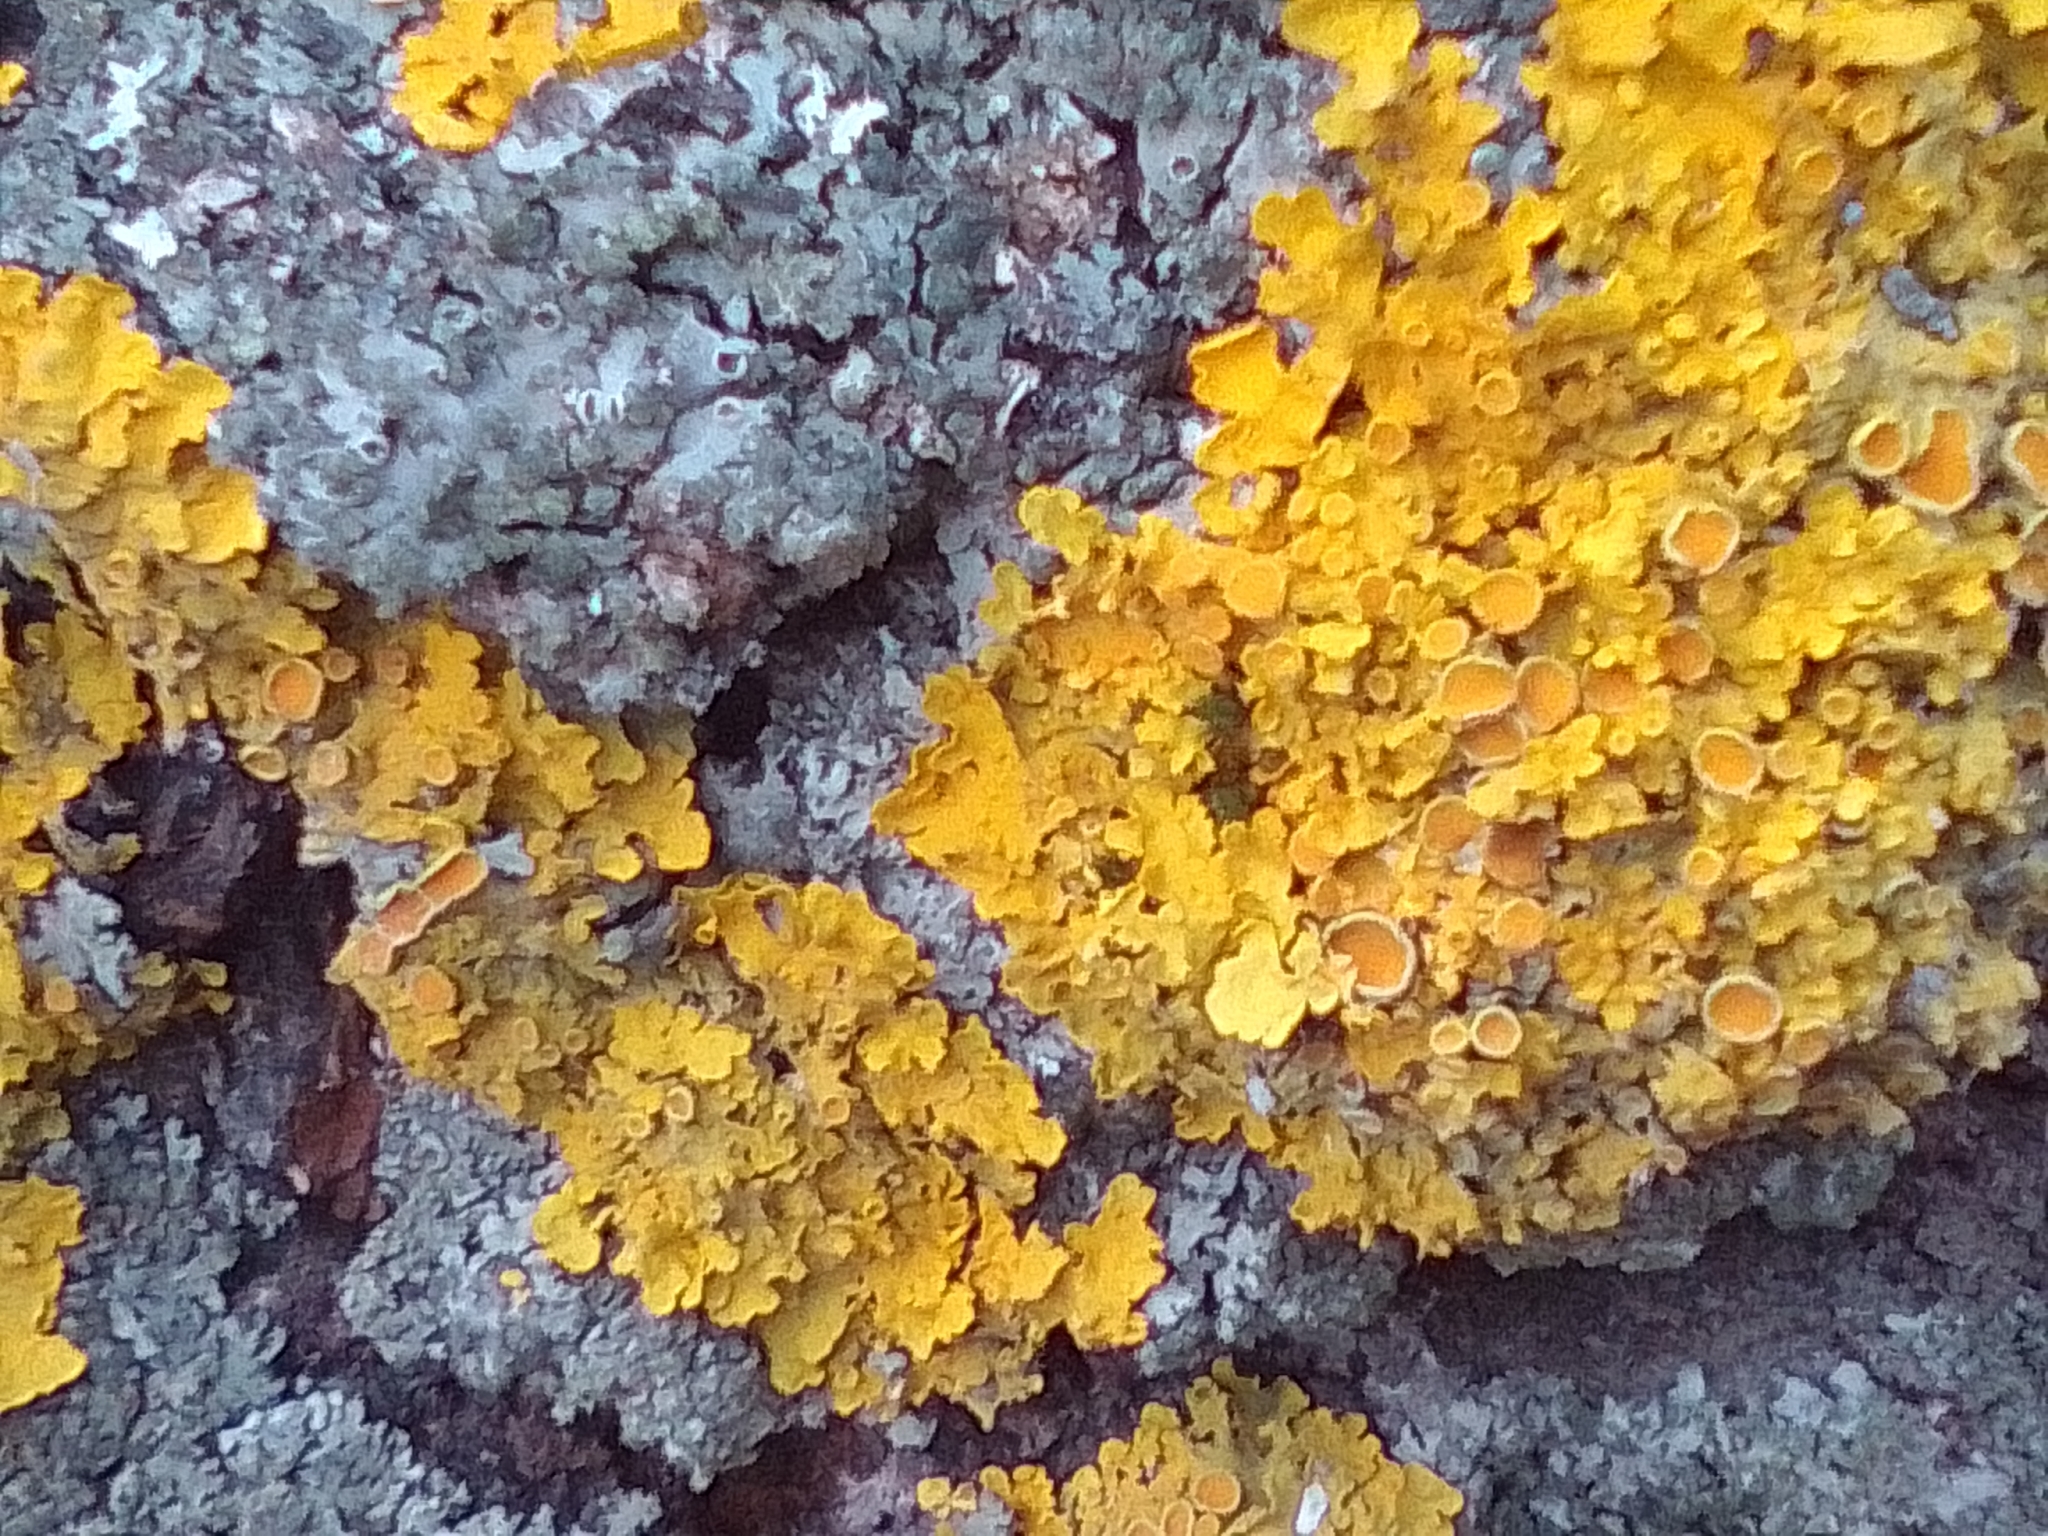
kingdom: Fungi
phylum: Ascomycota
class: Lecanoromycetes
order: Teloschistales
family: Teloschistaceae
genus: Xanthoria
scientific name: Xanthoria parietina
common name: Common orange lichen
